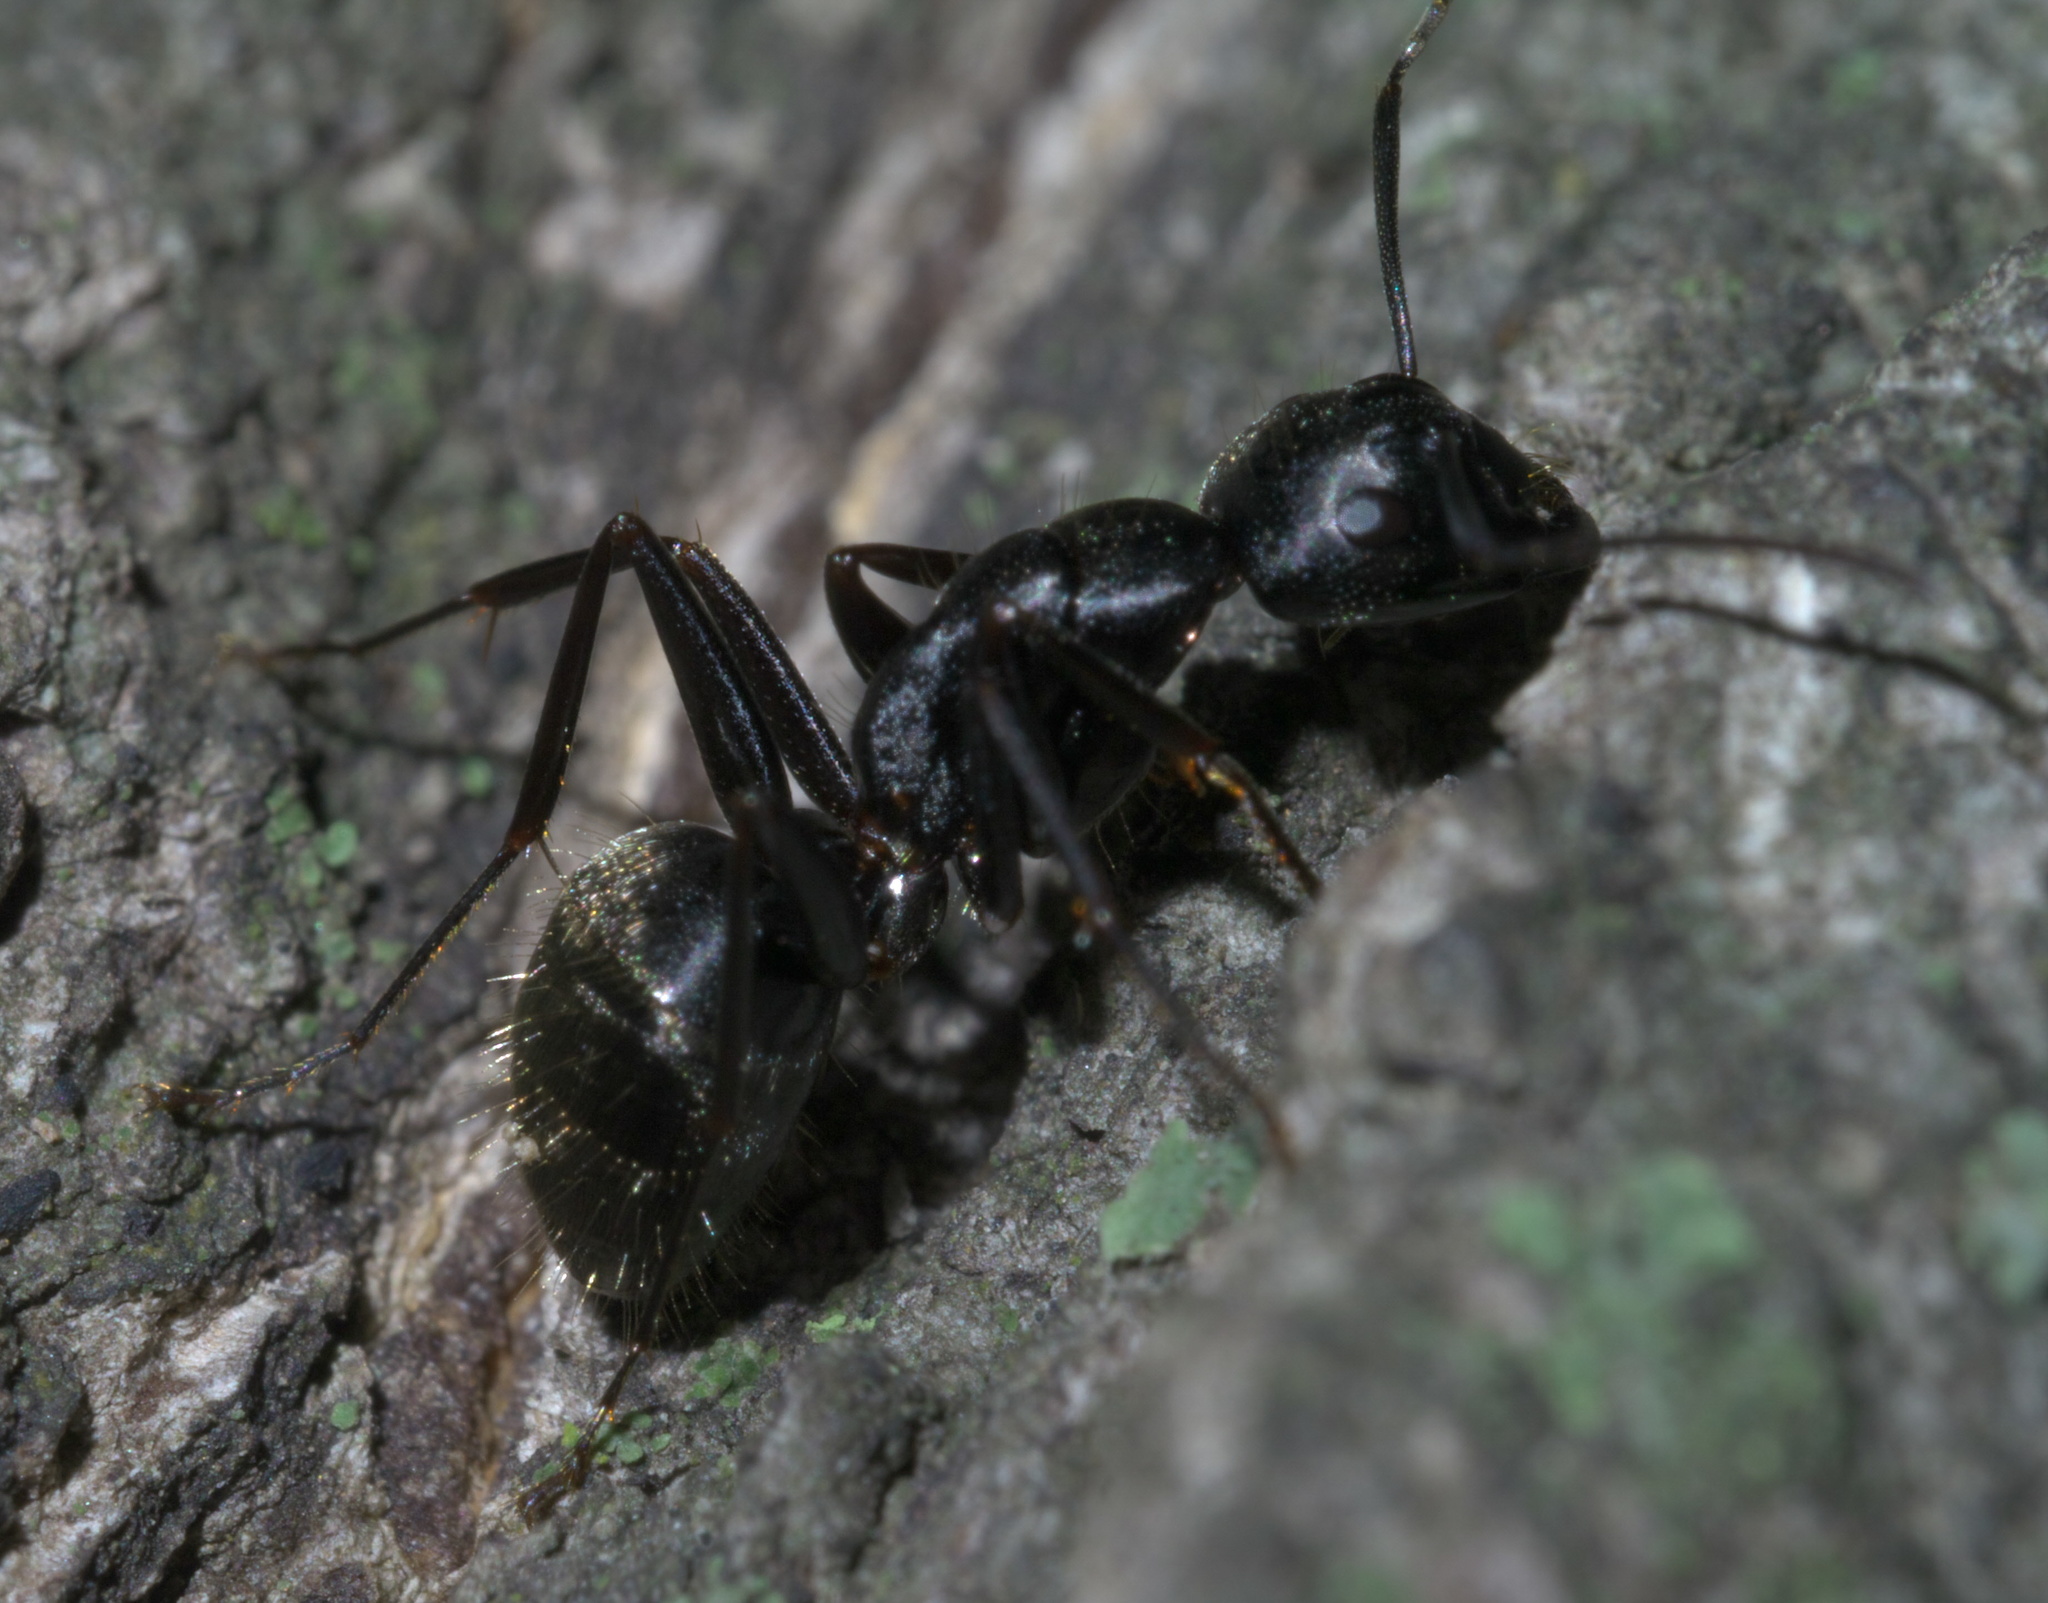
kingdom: Animalia
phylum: Arthropoda
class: Insecta
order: Hymenoptera
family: Formicidae
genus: Camponotus
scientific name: Camponotus pennsylvanicus
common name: Black carpenter ant
